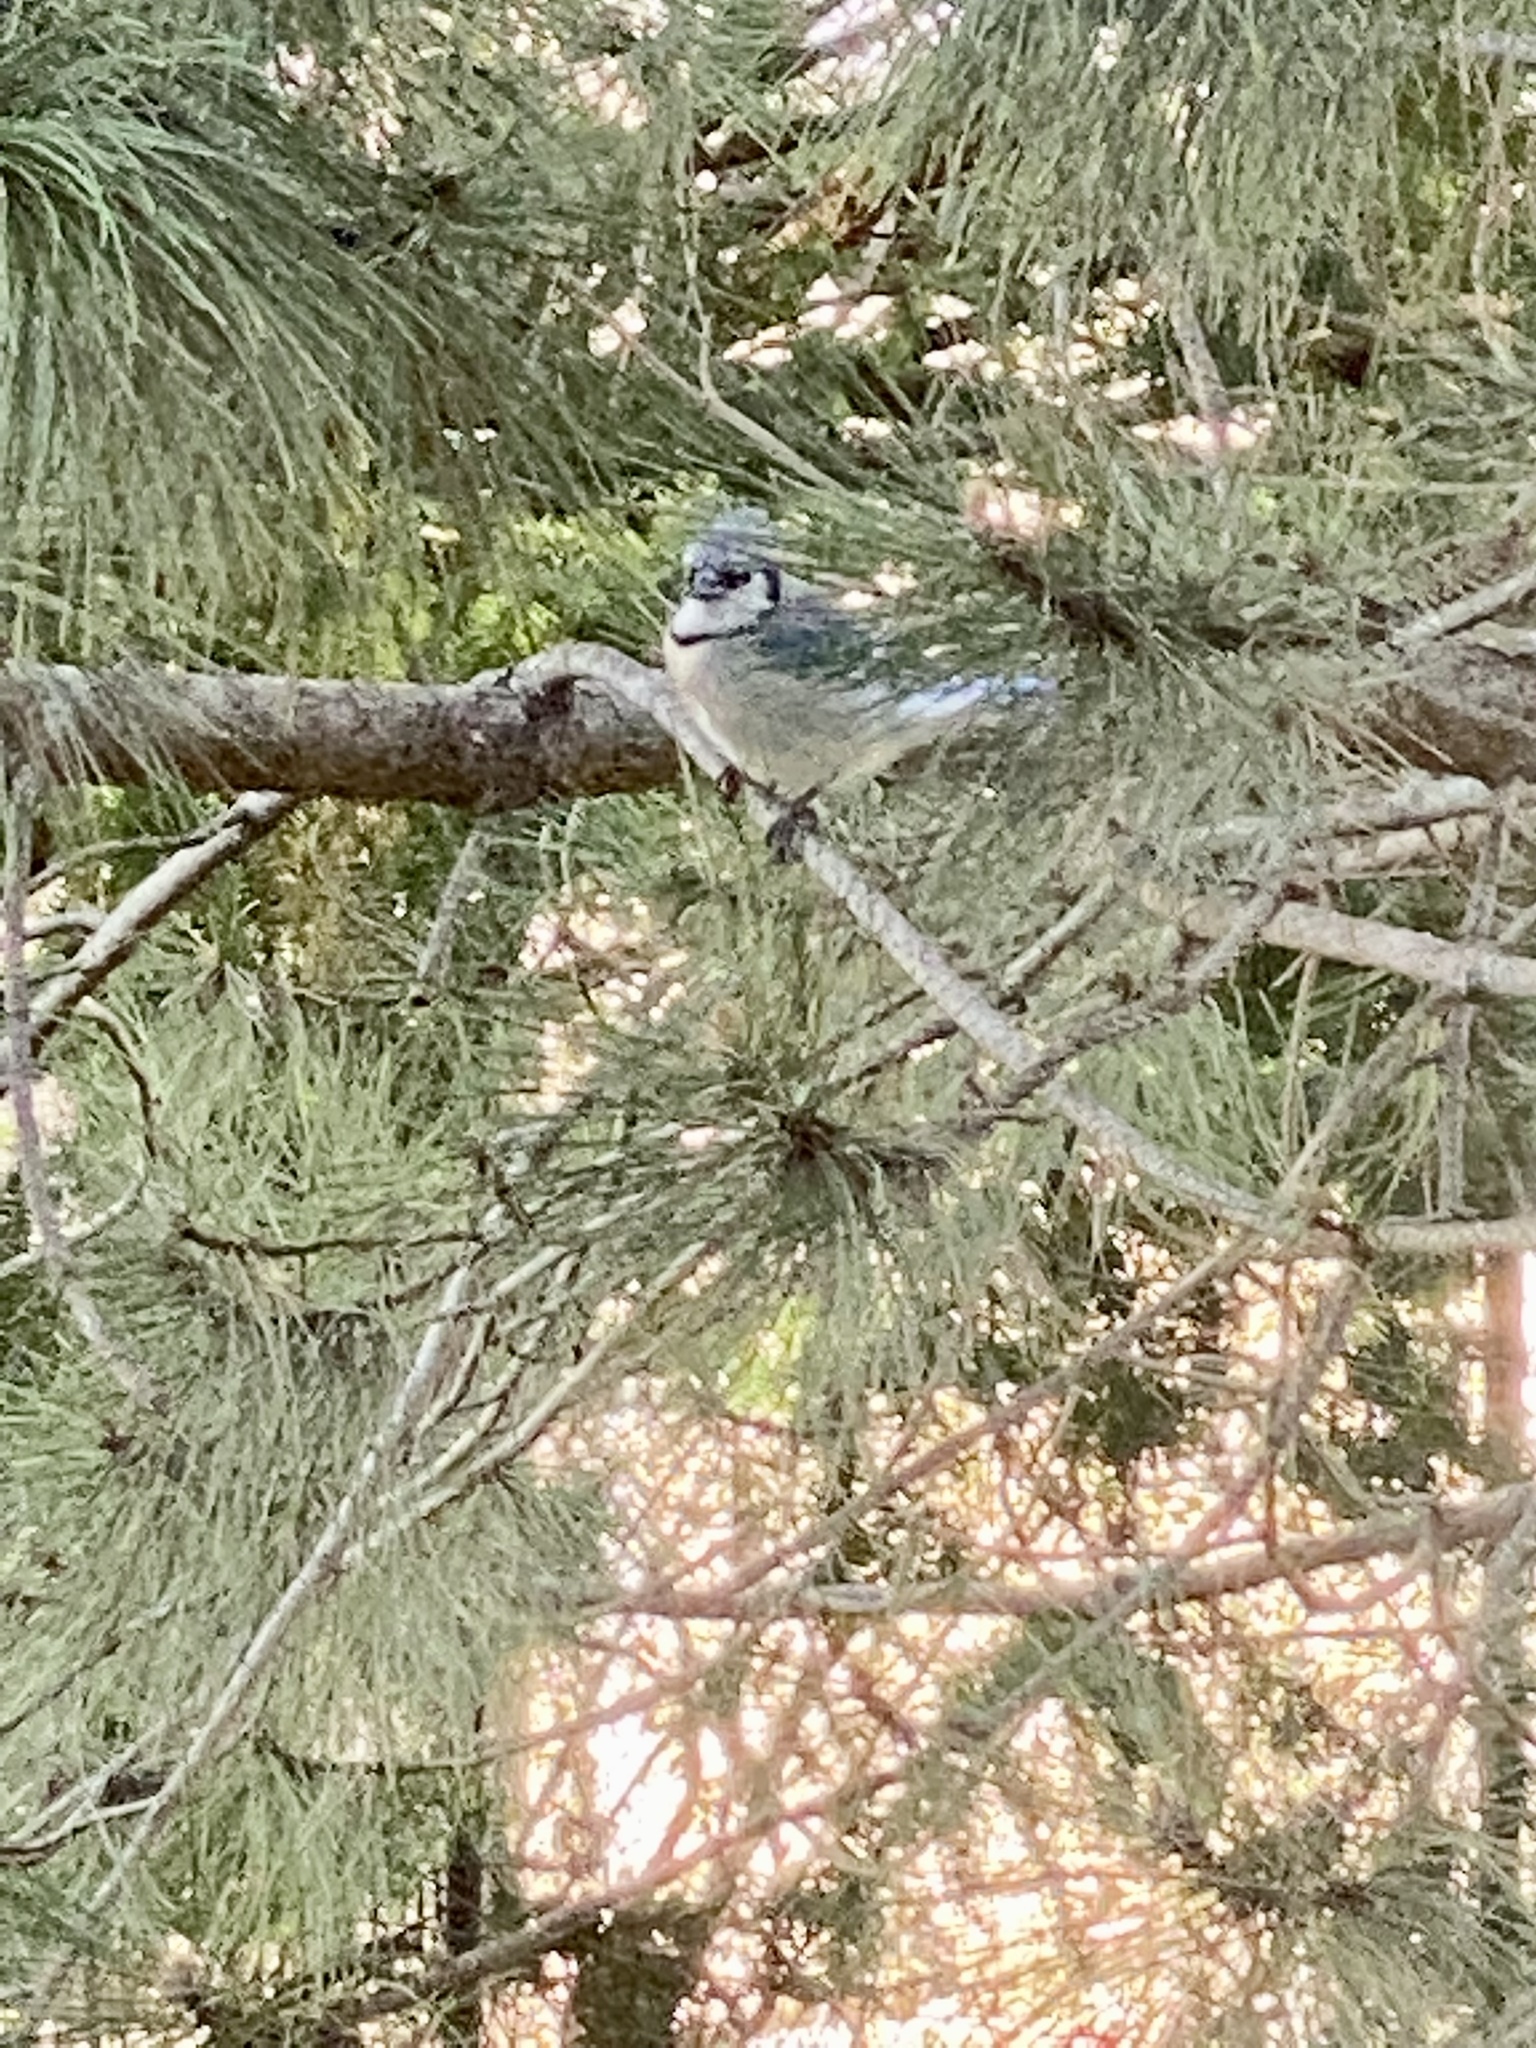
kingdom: Animalia
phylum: Chordata
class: Aves
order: Passeriformes
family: Corvidae
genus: Cyanocitta
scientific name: Cyanocitta cristata
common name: Blue jay
